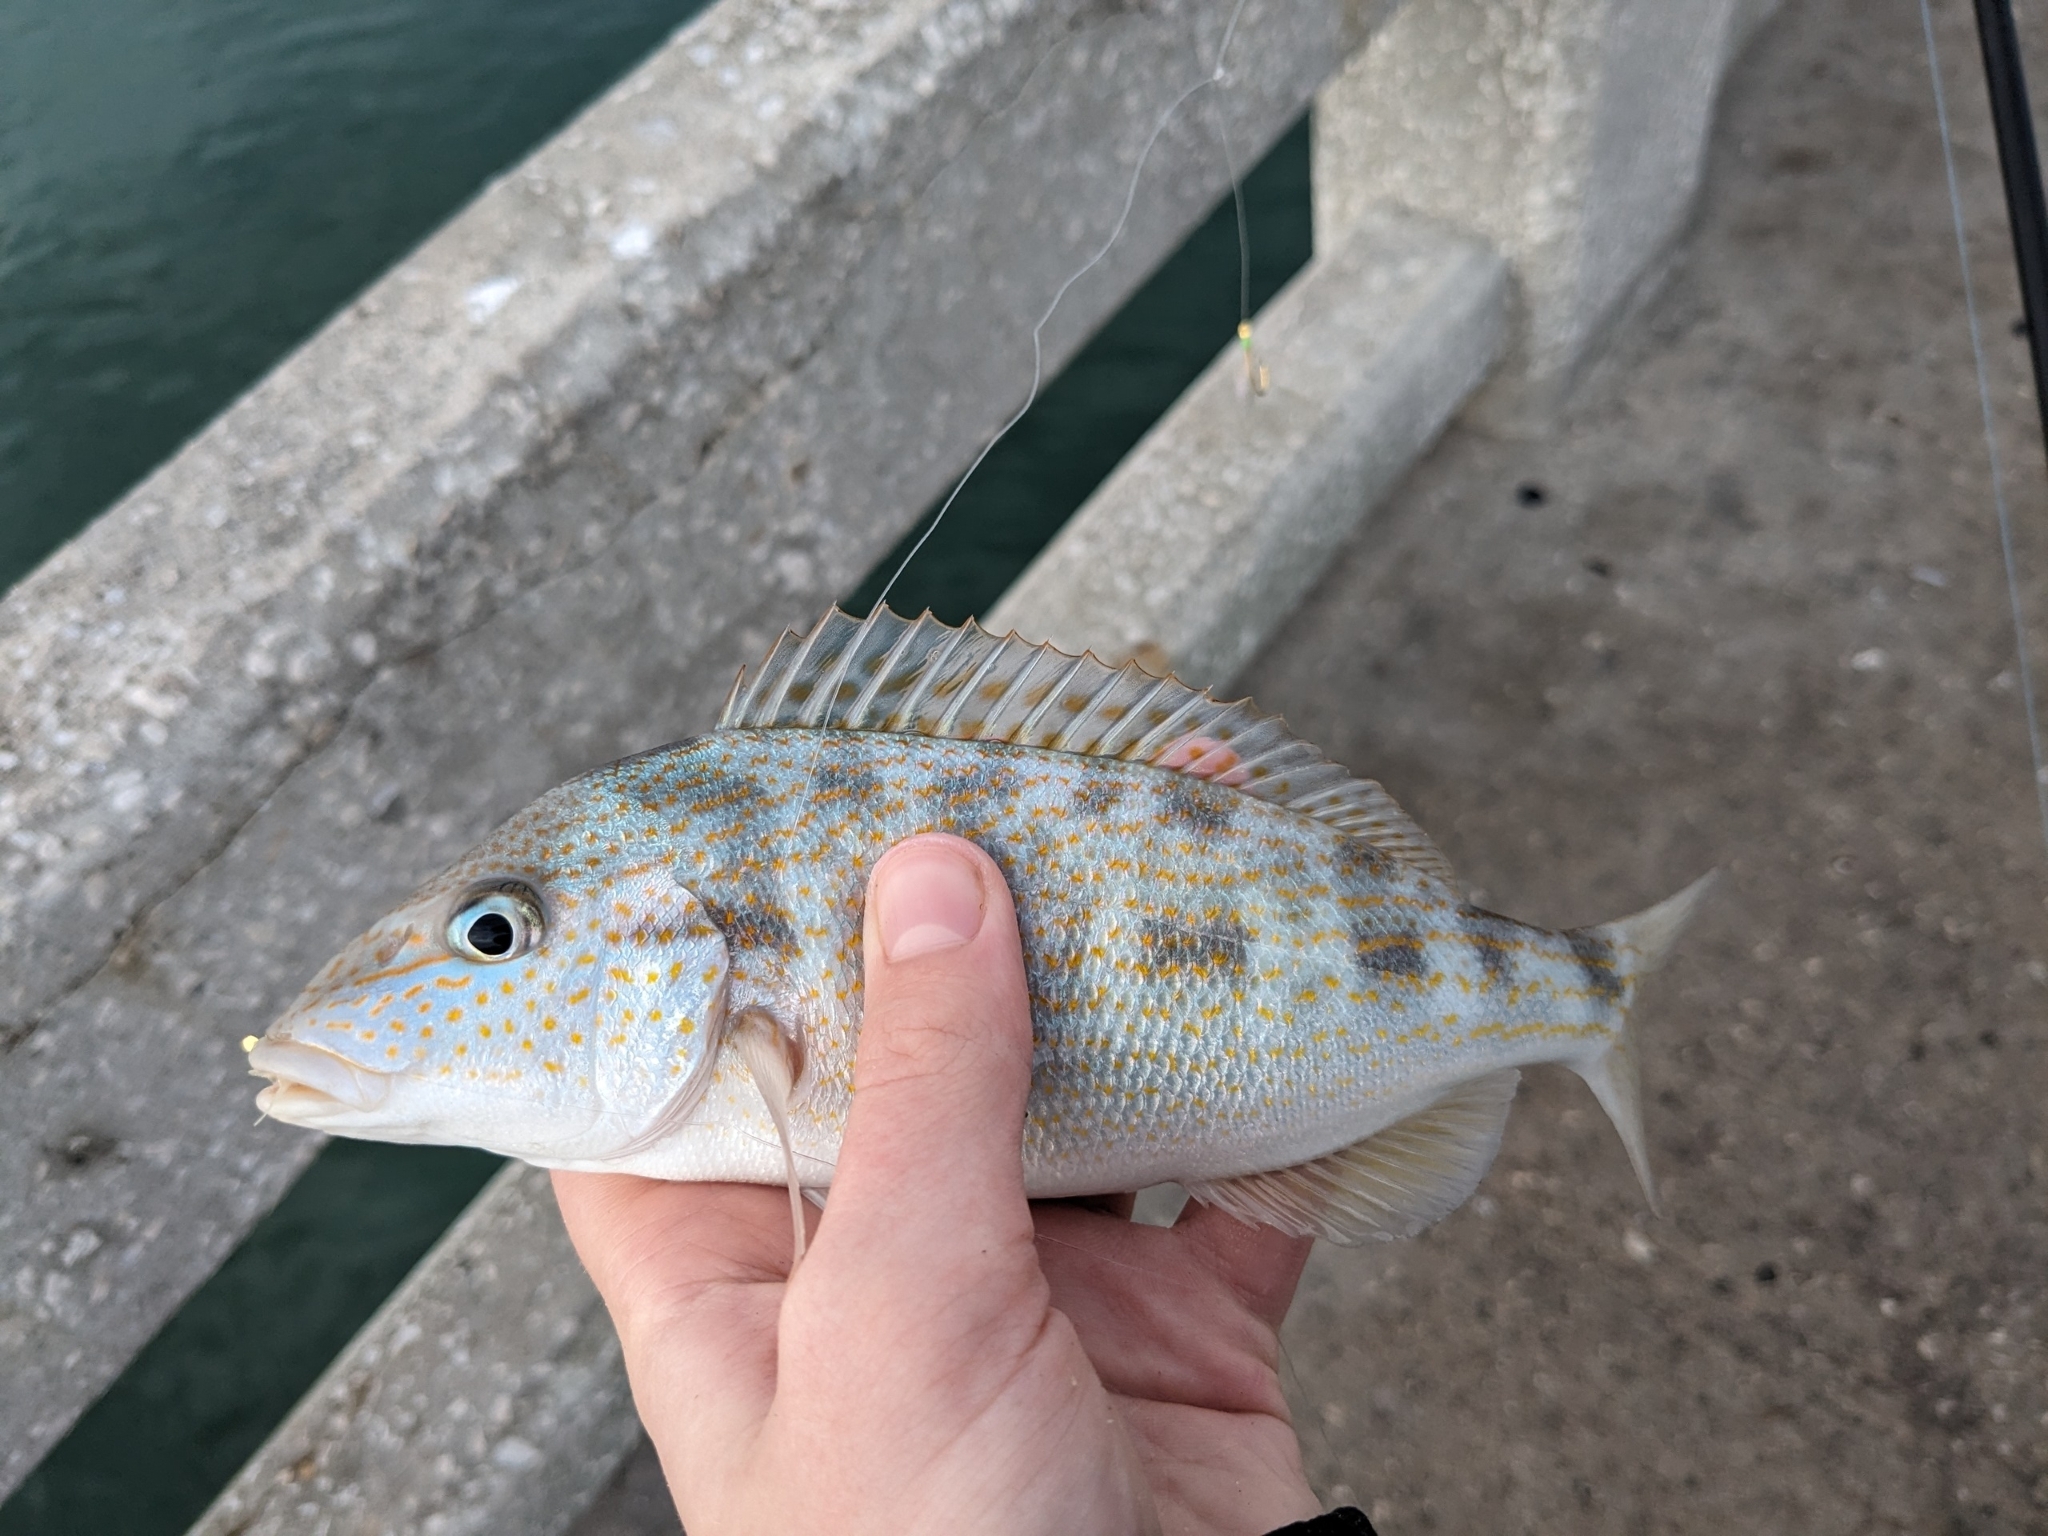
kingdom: Animalia
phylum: Chordata
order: Perciformes
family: Haemulidae
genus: Orthopristis
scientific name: Orthopristis chrysoptera
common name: Pigfish
